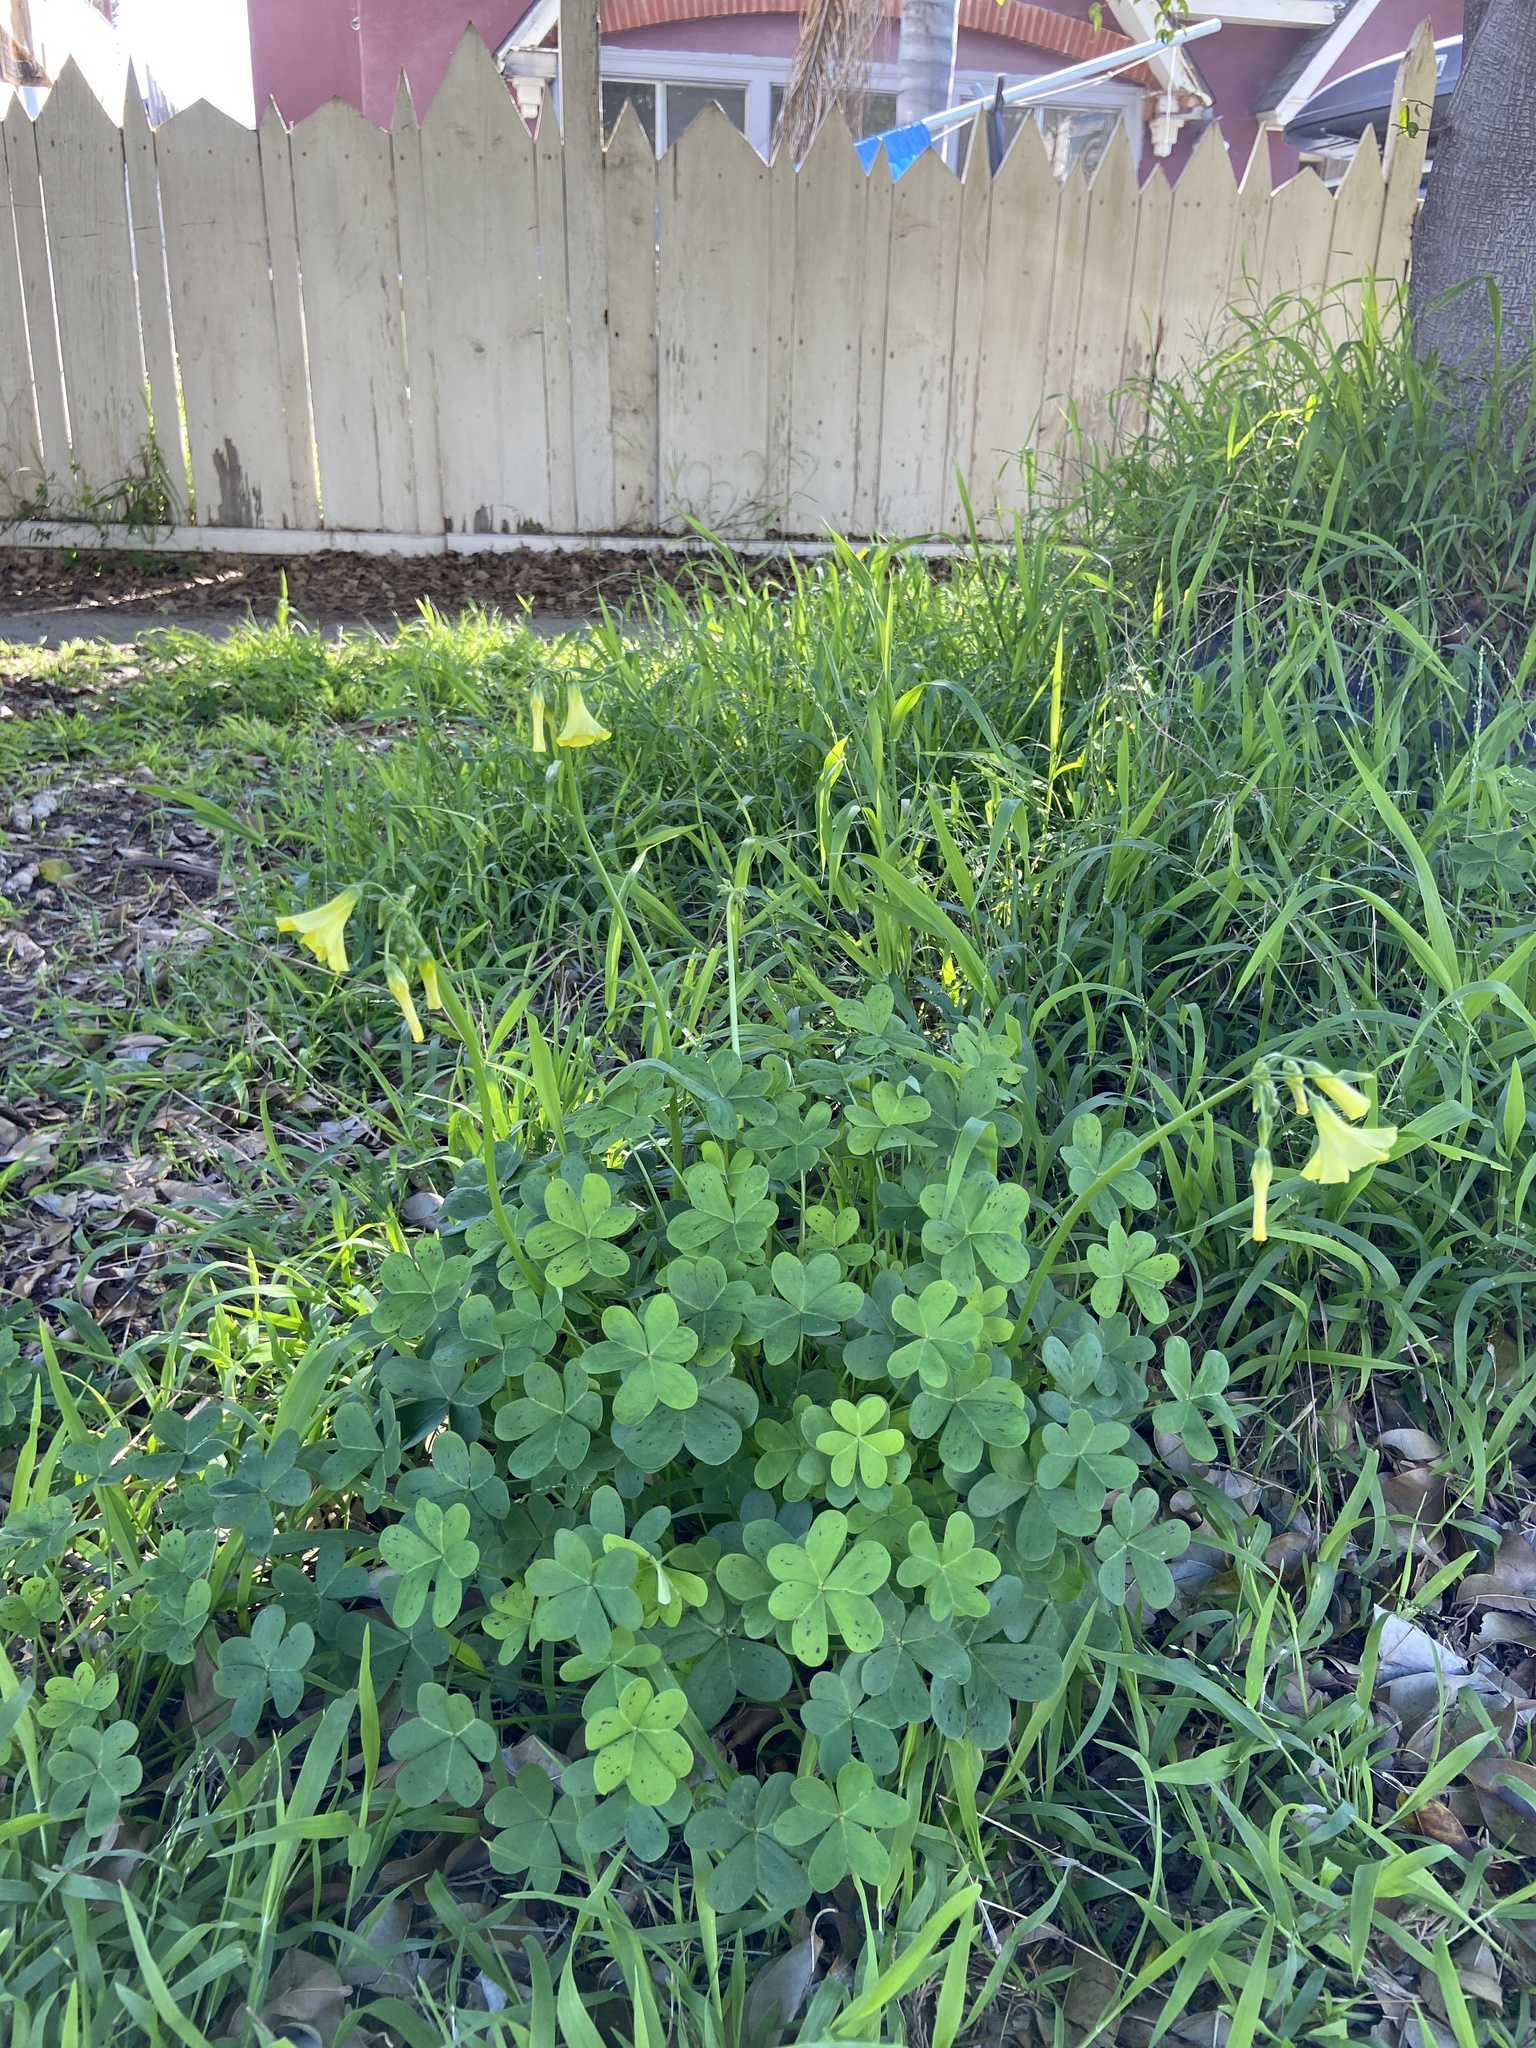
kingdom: Plantae
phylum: Tracheophyta
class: Magnoliopsida
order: Oxalidales
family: Oxalidaceae
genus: Oxalis
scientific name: Oxalis pes-caprae
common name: Bermuda-buttercup
